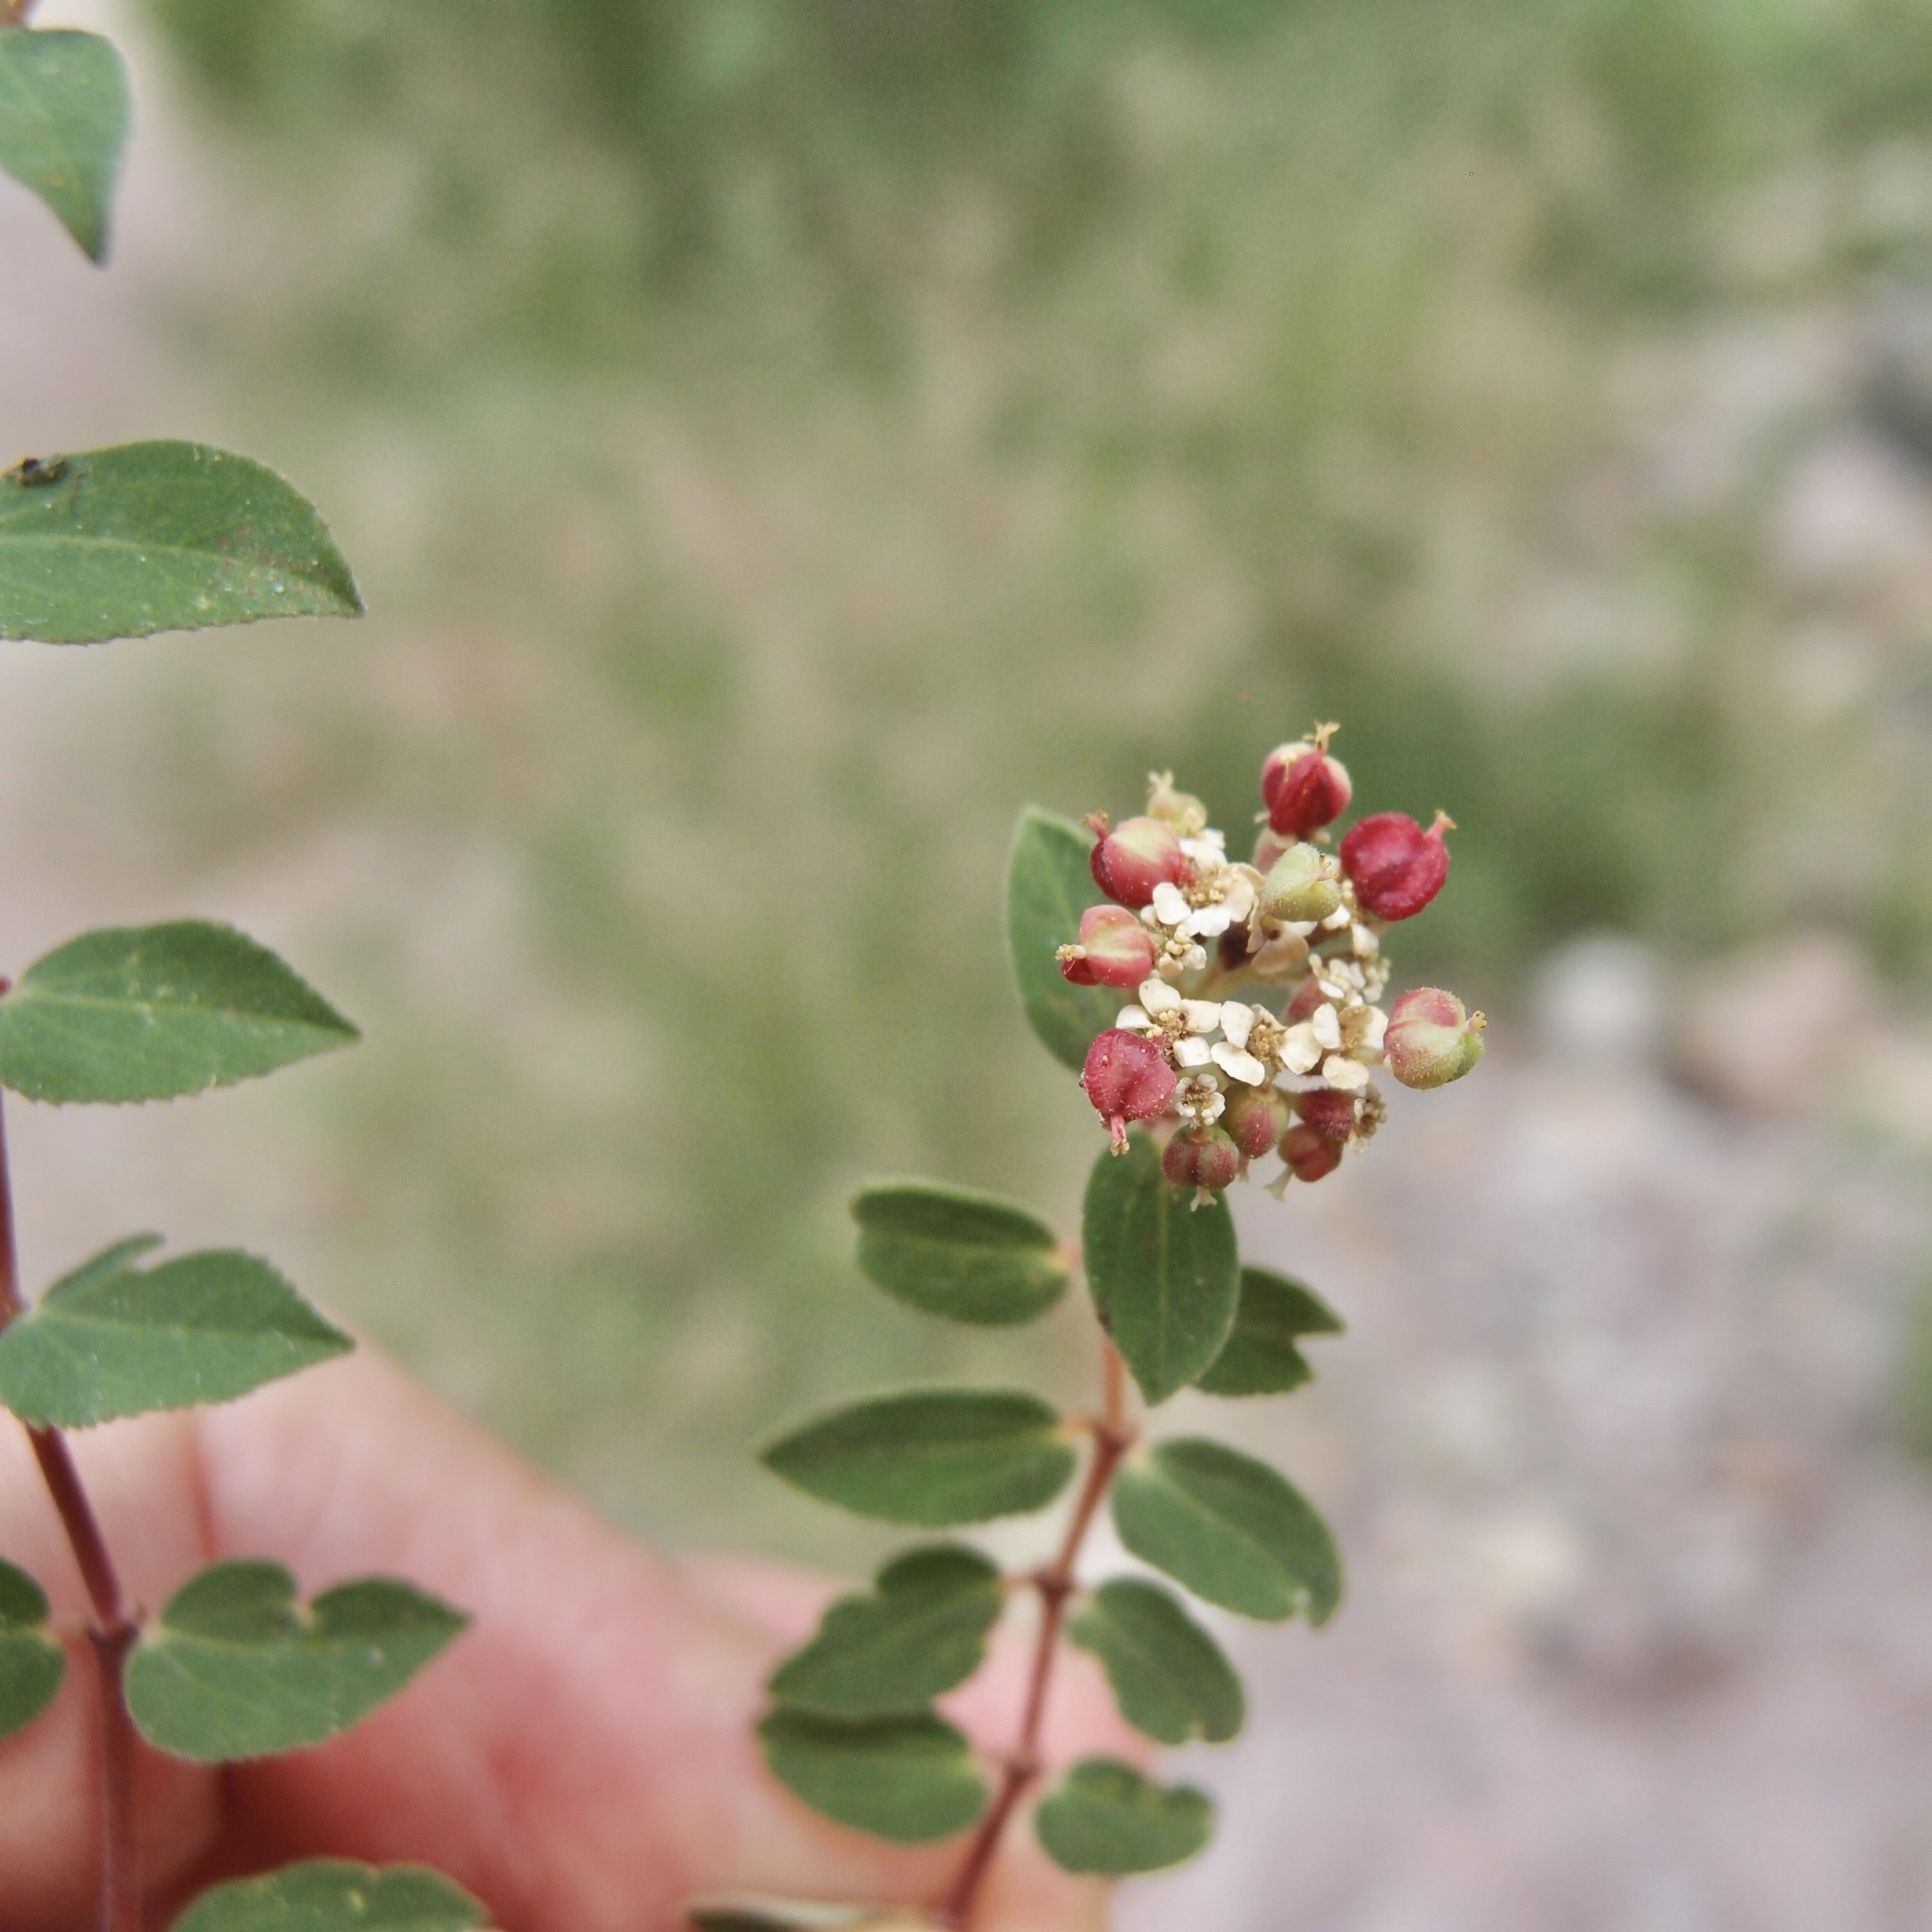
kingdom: Plantae
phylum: Tracheophyta
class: Magnoliopsida
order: Malpighiales
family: Euphorbiaceae
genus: Euphorbia
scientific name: Euphorbia tomentulosa
